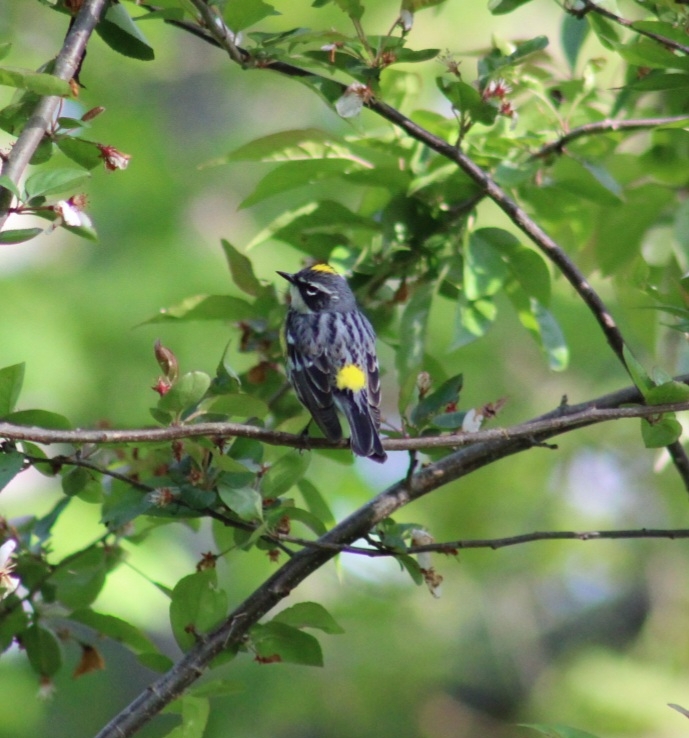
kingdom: Animalia
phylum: Chordata
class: Aves
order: Passeriformes
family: Parulidae
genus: Setophaga
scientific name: Setophaga coronata
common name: Myrtle warbler
